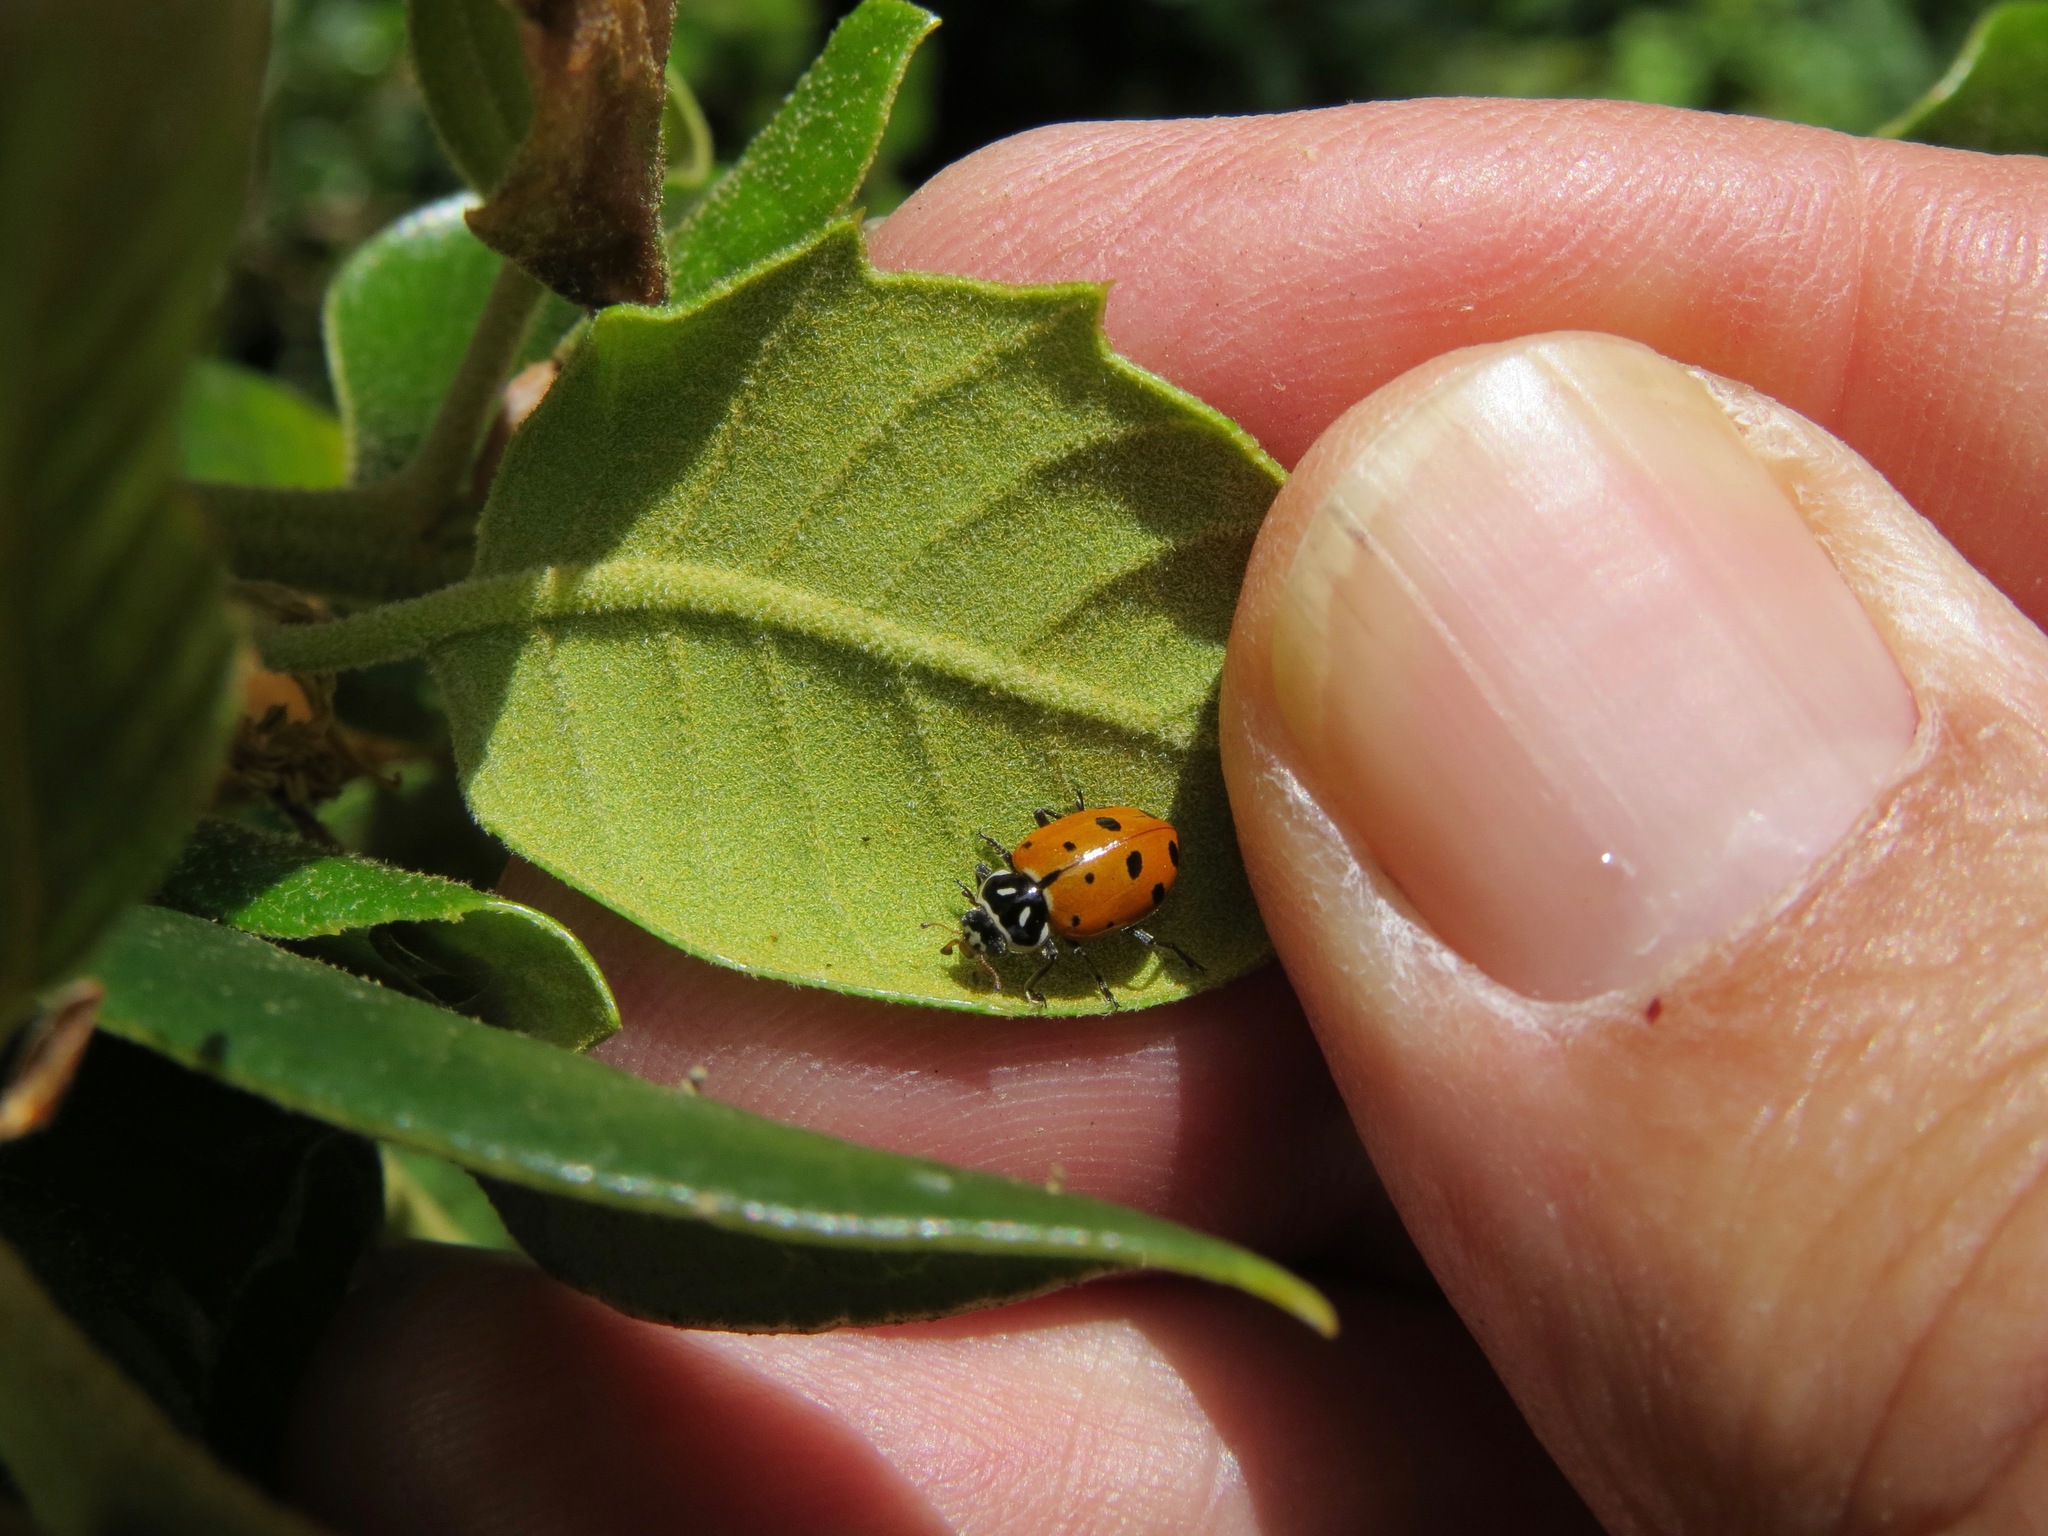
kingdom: Animalia
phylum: Arthropoda
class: Insecta
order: Coleoptera
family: Coccinellidae
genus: Hippodamia
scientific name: Hippodamia convergens
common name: Convergent lady beetle
